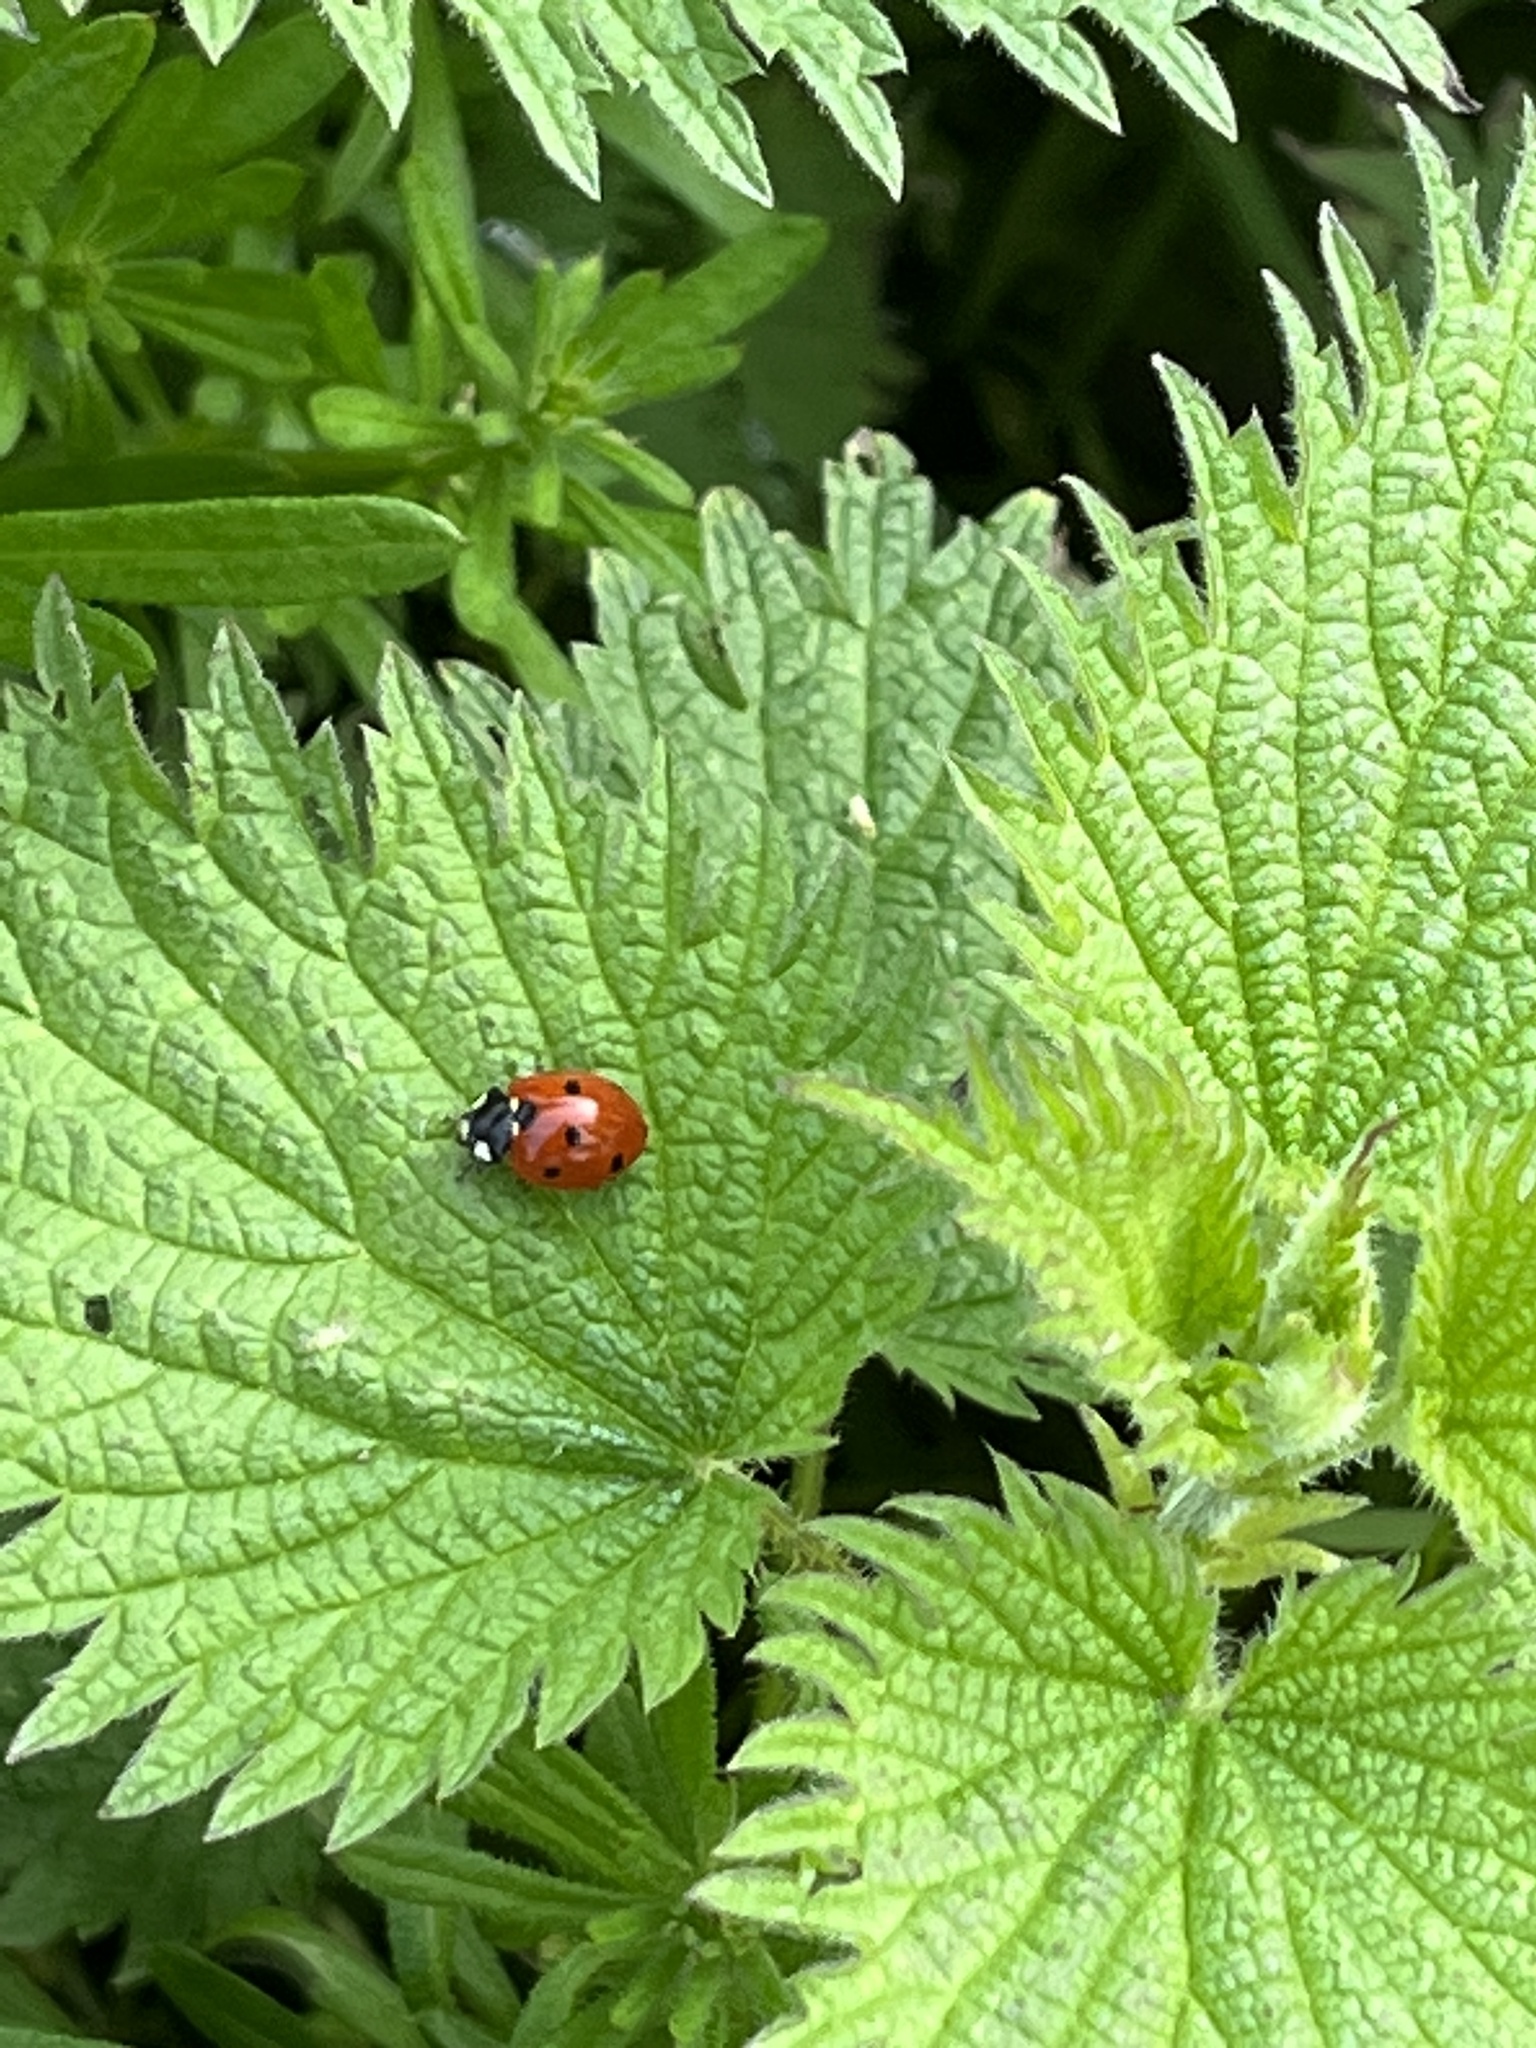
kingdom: Animalia
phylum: Arthropoda
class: Insecta
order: Coleoptera
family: Coccinellidae
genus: Coccinella
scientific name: Coccinella septempunctata
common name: Sevenspotted lady beetle
